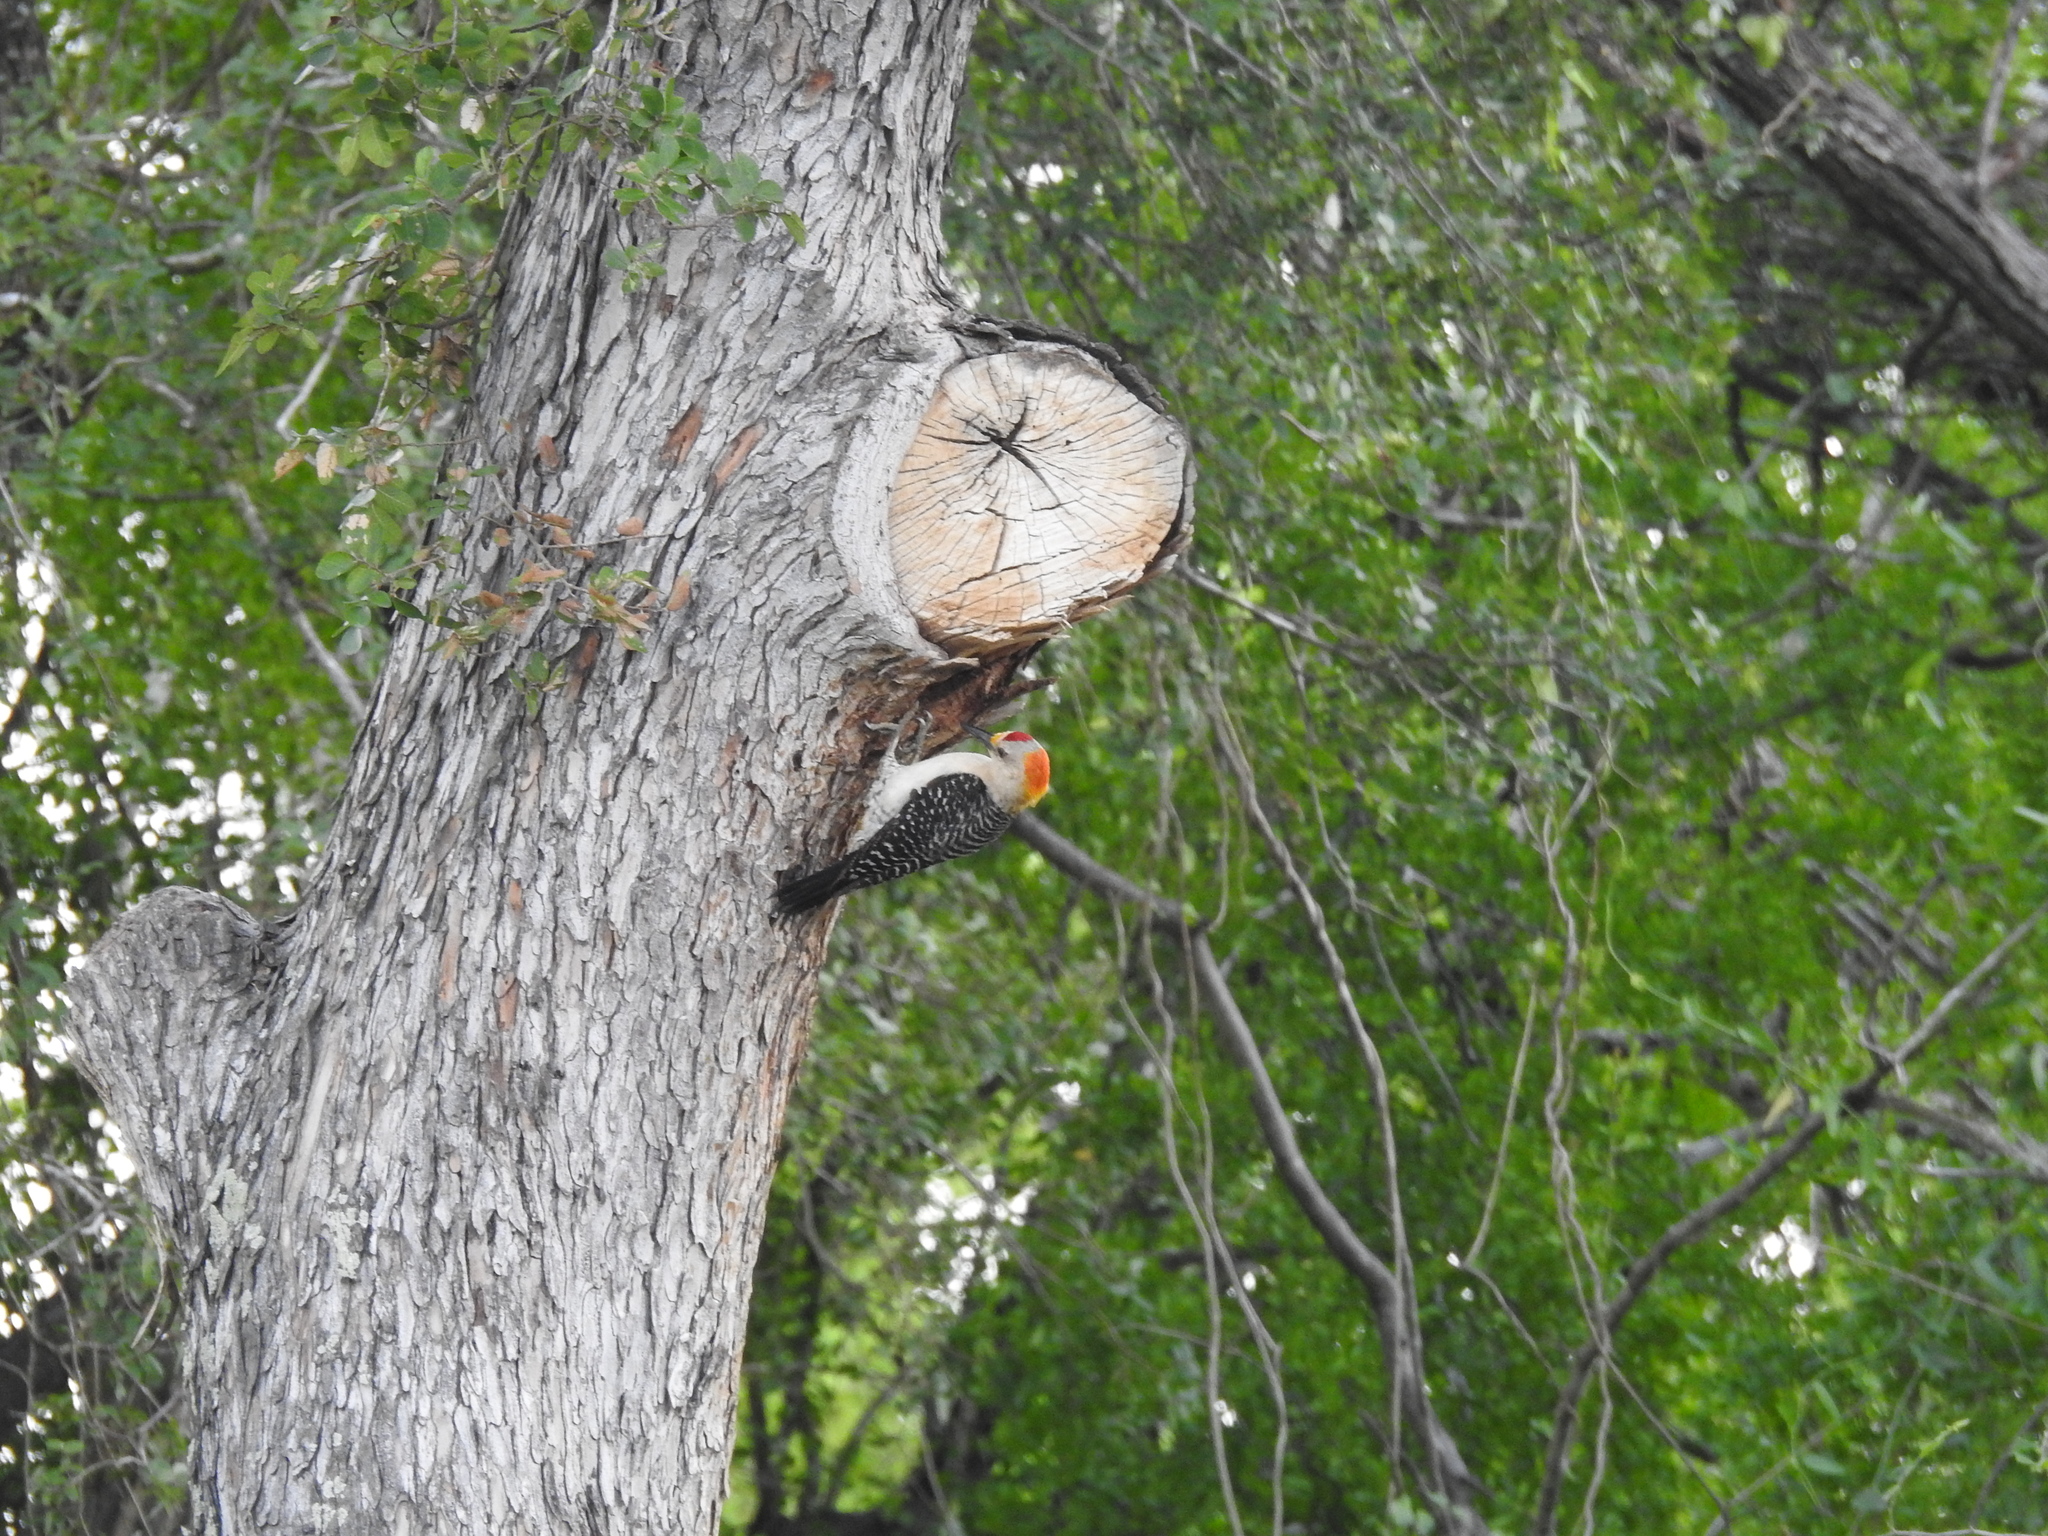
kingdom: Animalia
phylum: Chordata
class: Aves
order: Piciformes
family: Picidae
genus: Melanerpes
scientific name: Melanerpes aurifrons
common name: Golden-fronted woodpecker
